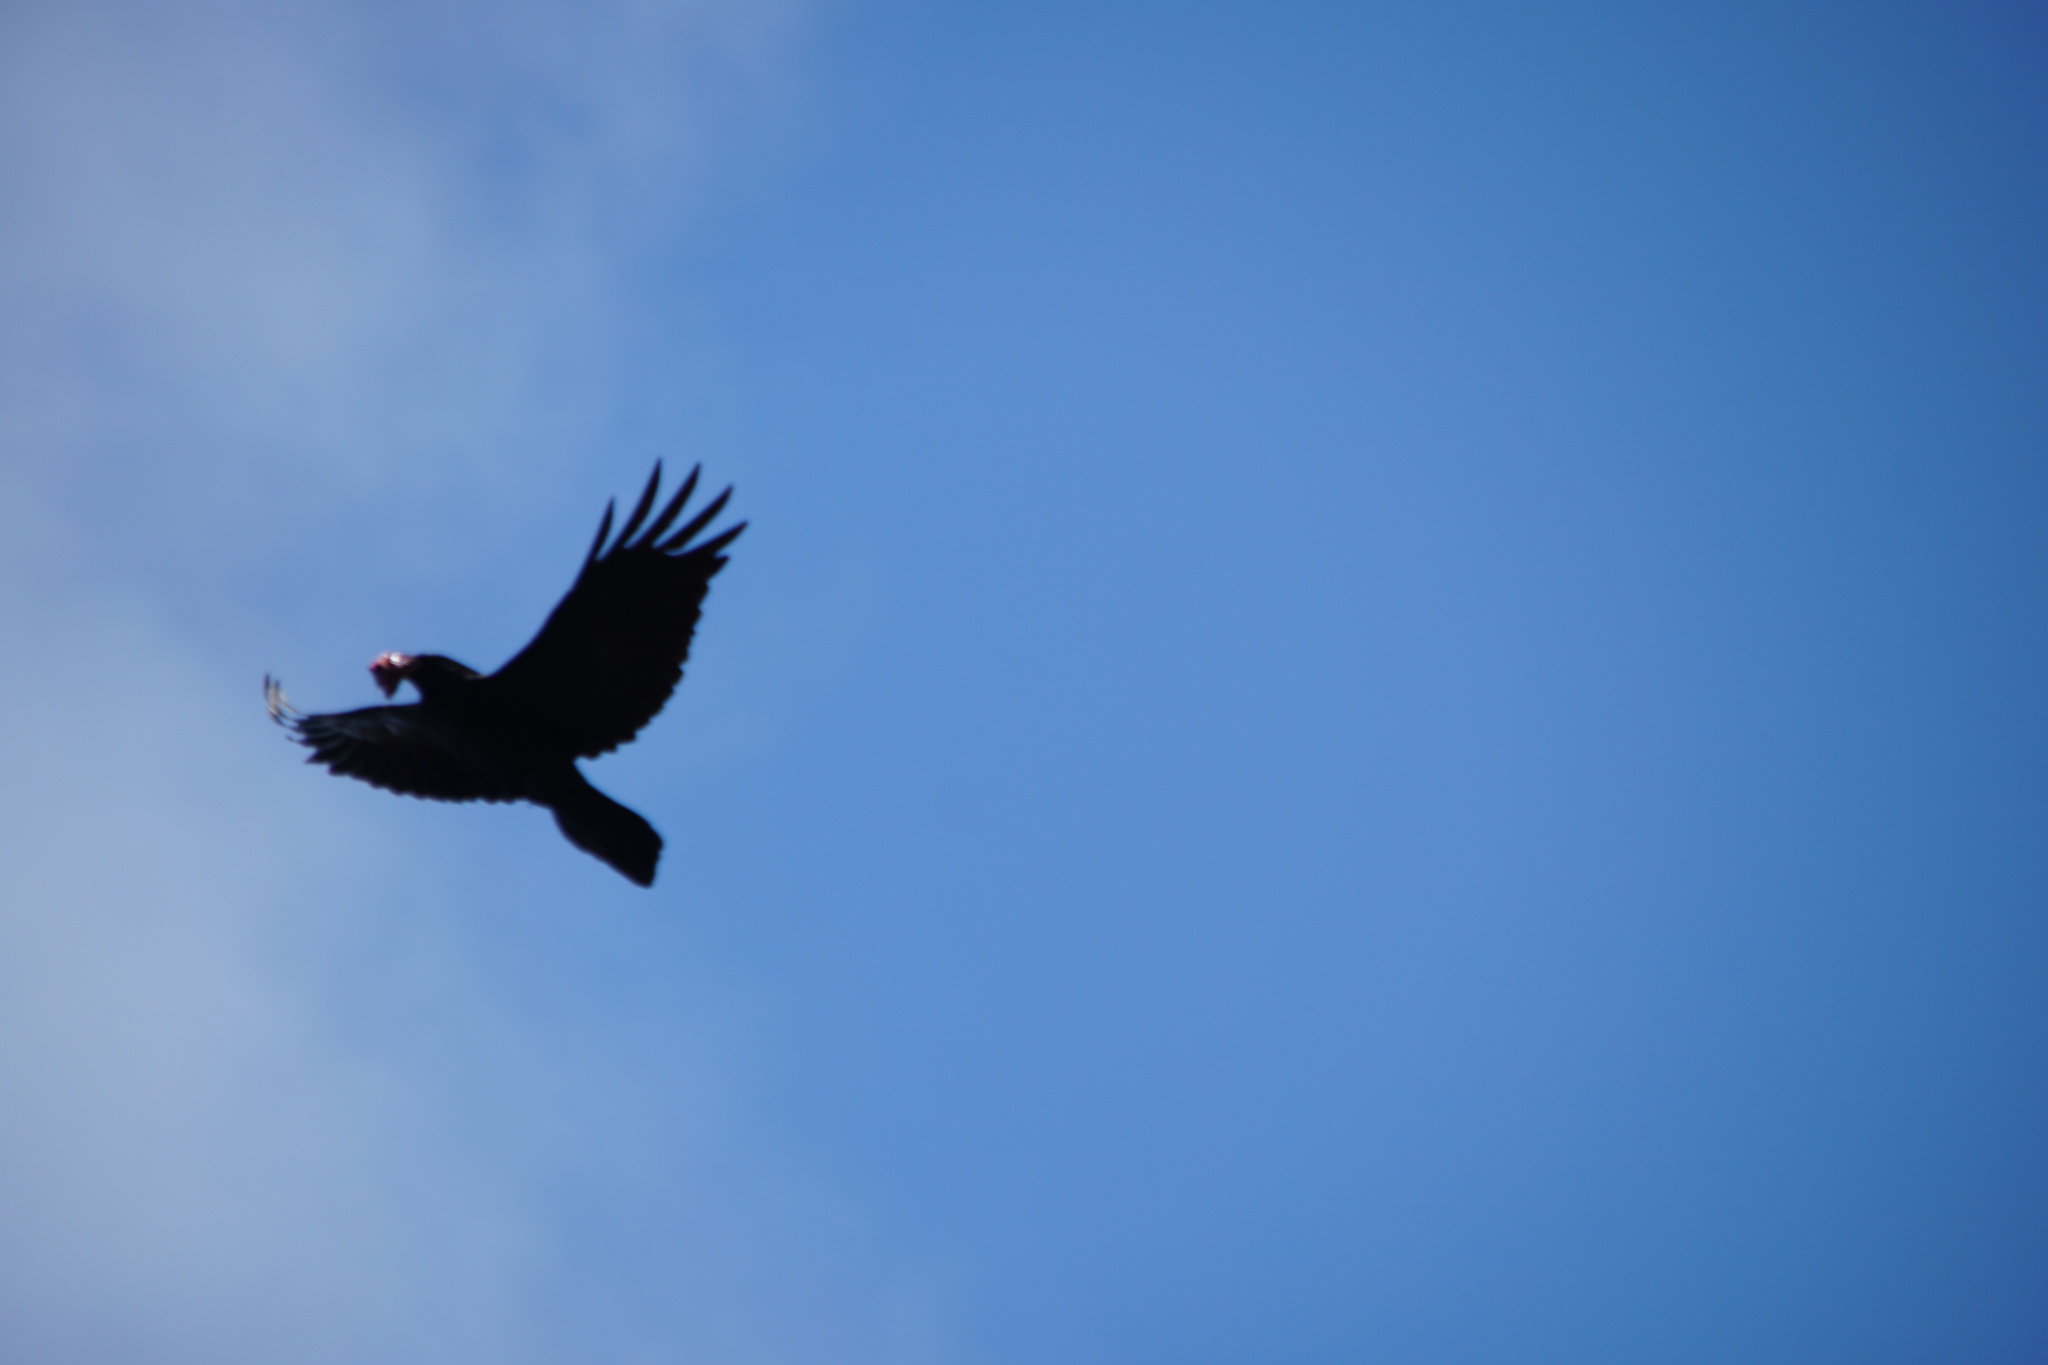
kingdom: Animalia
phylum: Chordata
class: Aves
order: Passeriformes
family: Corvidae
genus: Corvus
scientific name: Corvus corax
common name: Common raven
